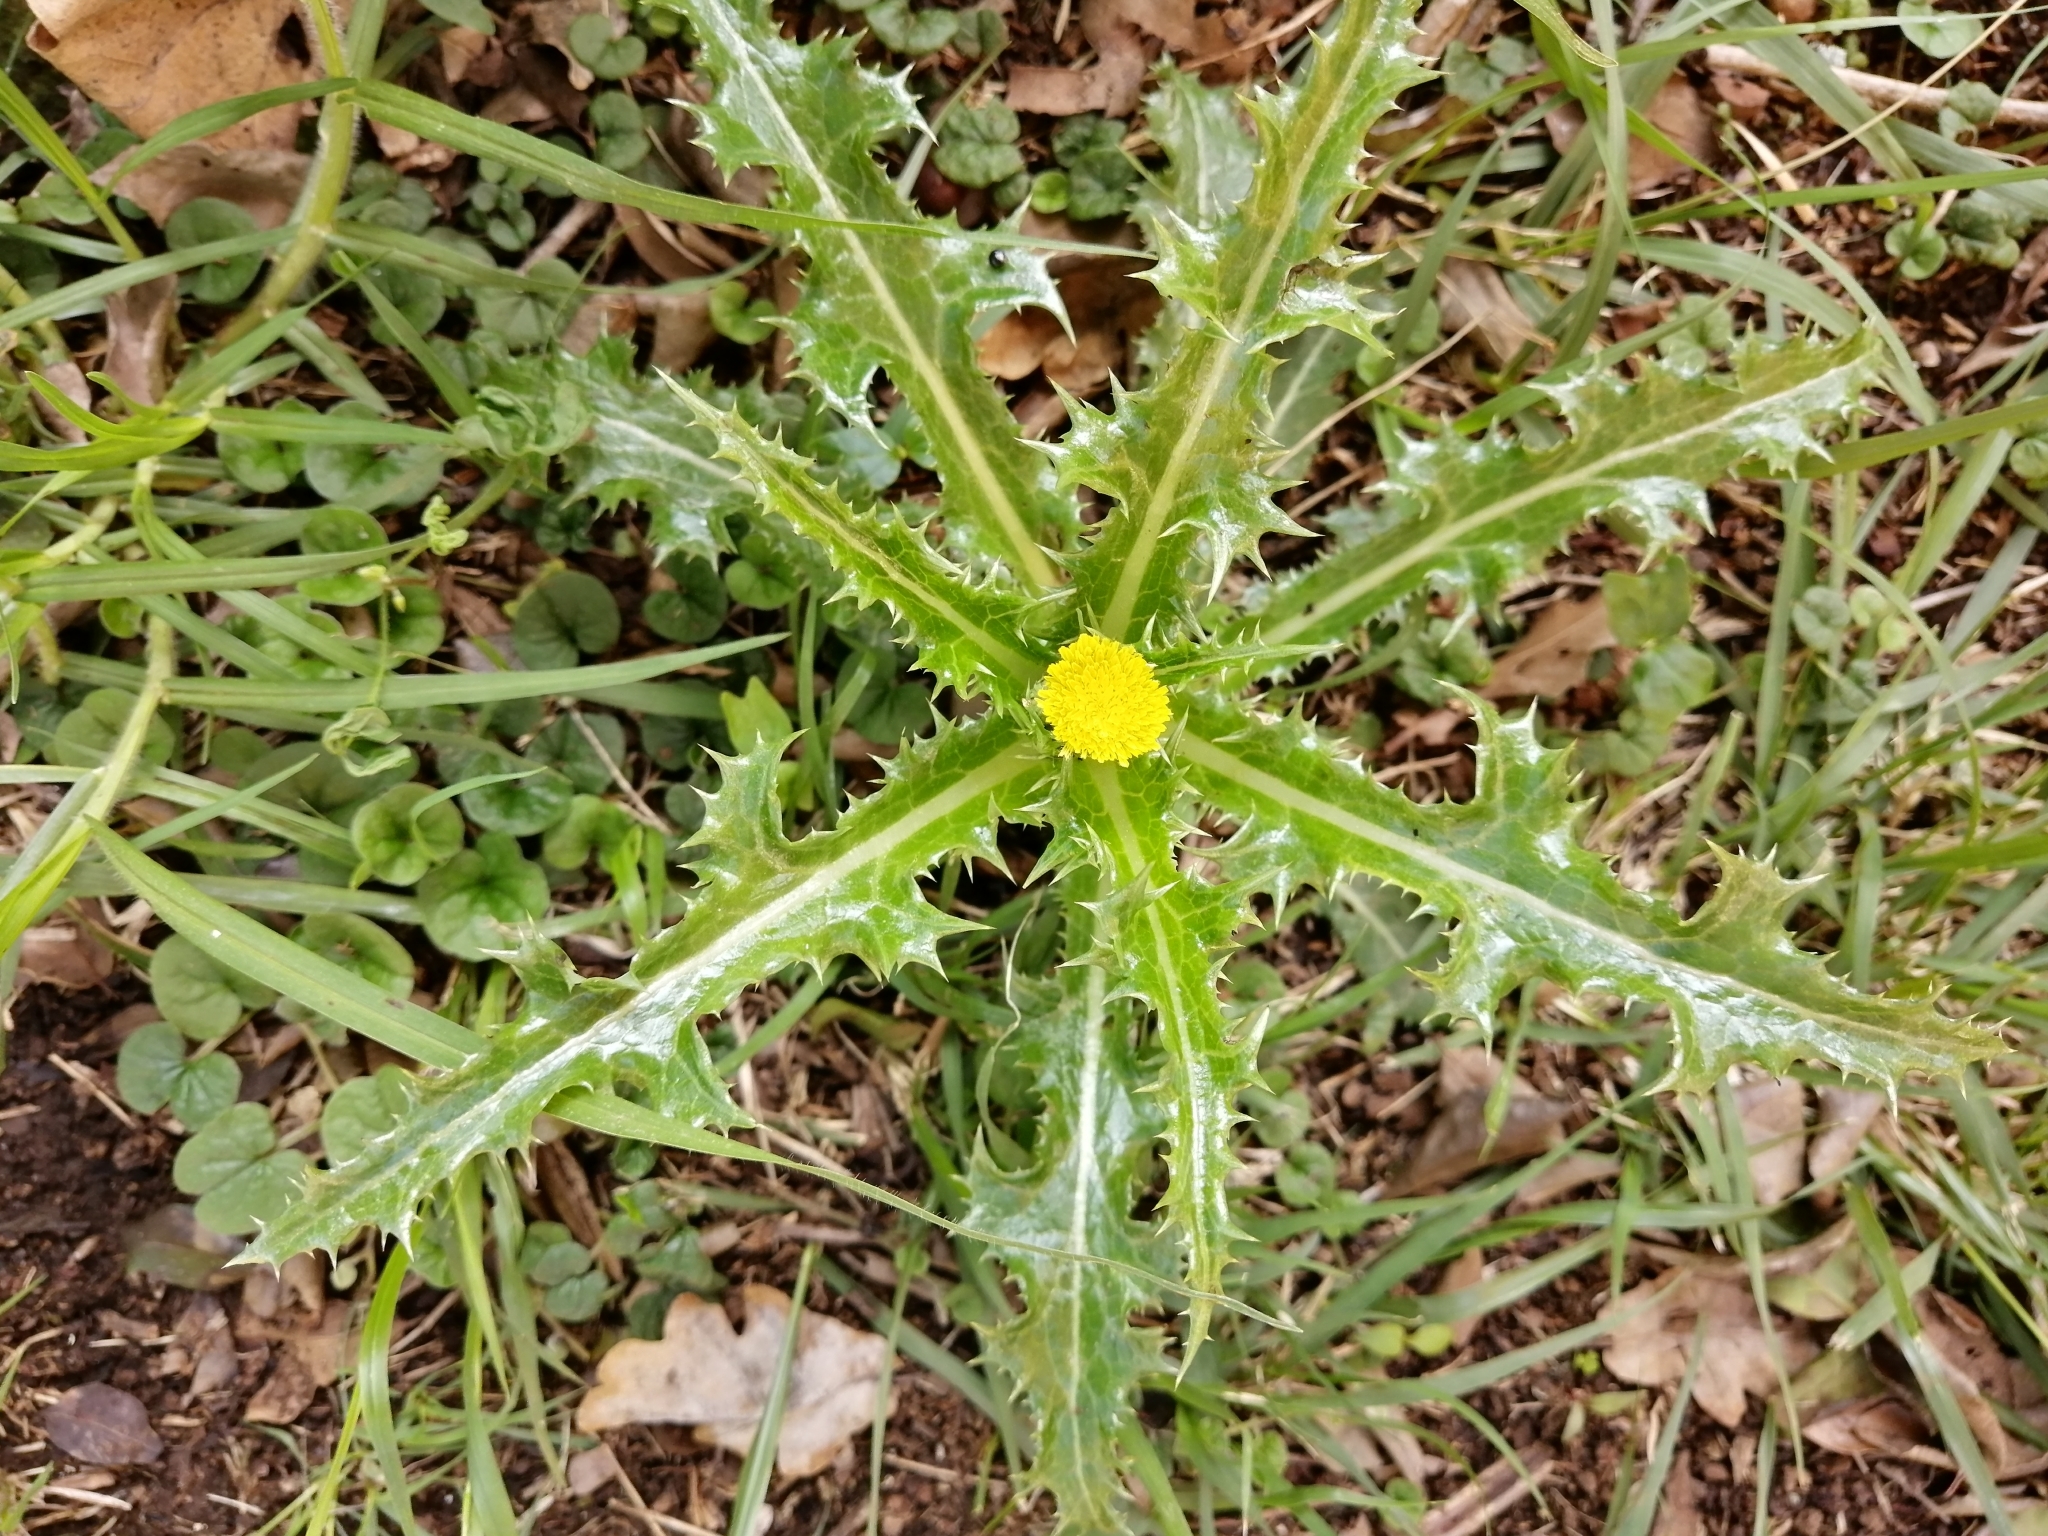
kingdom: Plantae
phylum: Tracheophyta
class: Magnoliopsida
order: Asterales
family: Asteraceae
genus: Sonchus
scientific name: Sonchus asper
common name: Prickly sow-thistle
